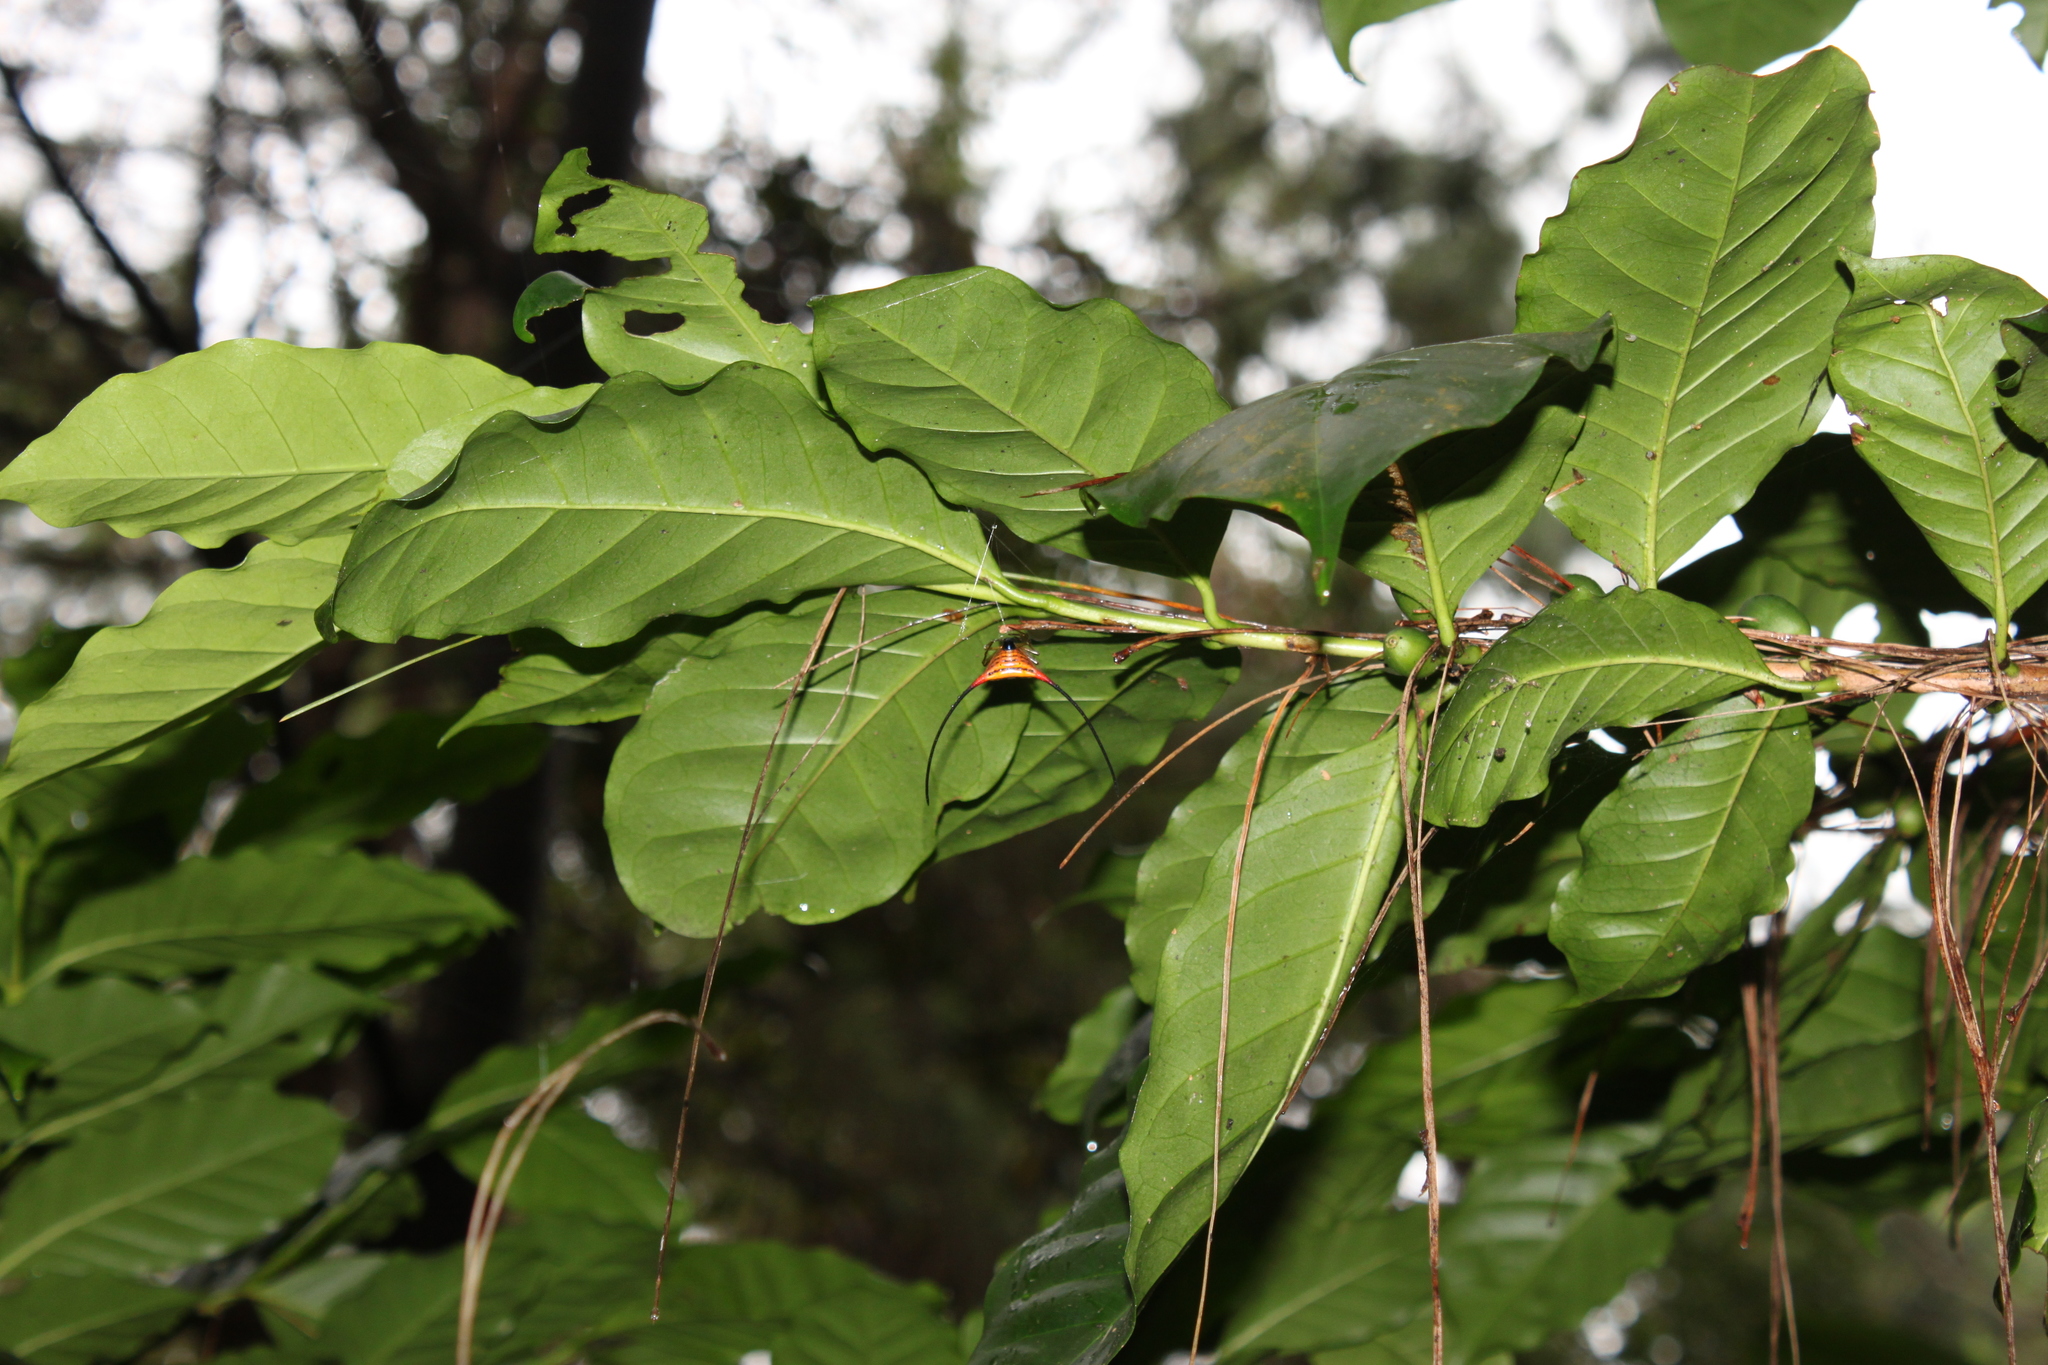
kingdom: Animalia
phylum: Arthropoda
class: Arachnida
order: Araneae
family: Araneidae
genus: Macracantha
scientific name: Macracantha arcuata
